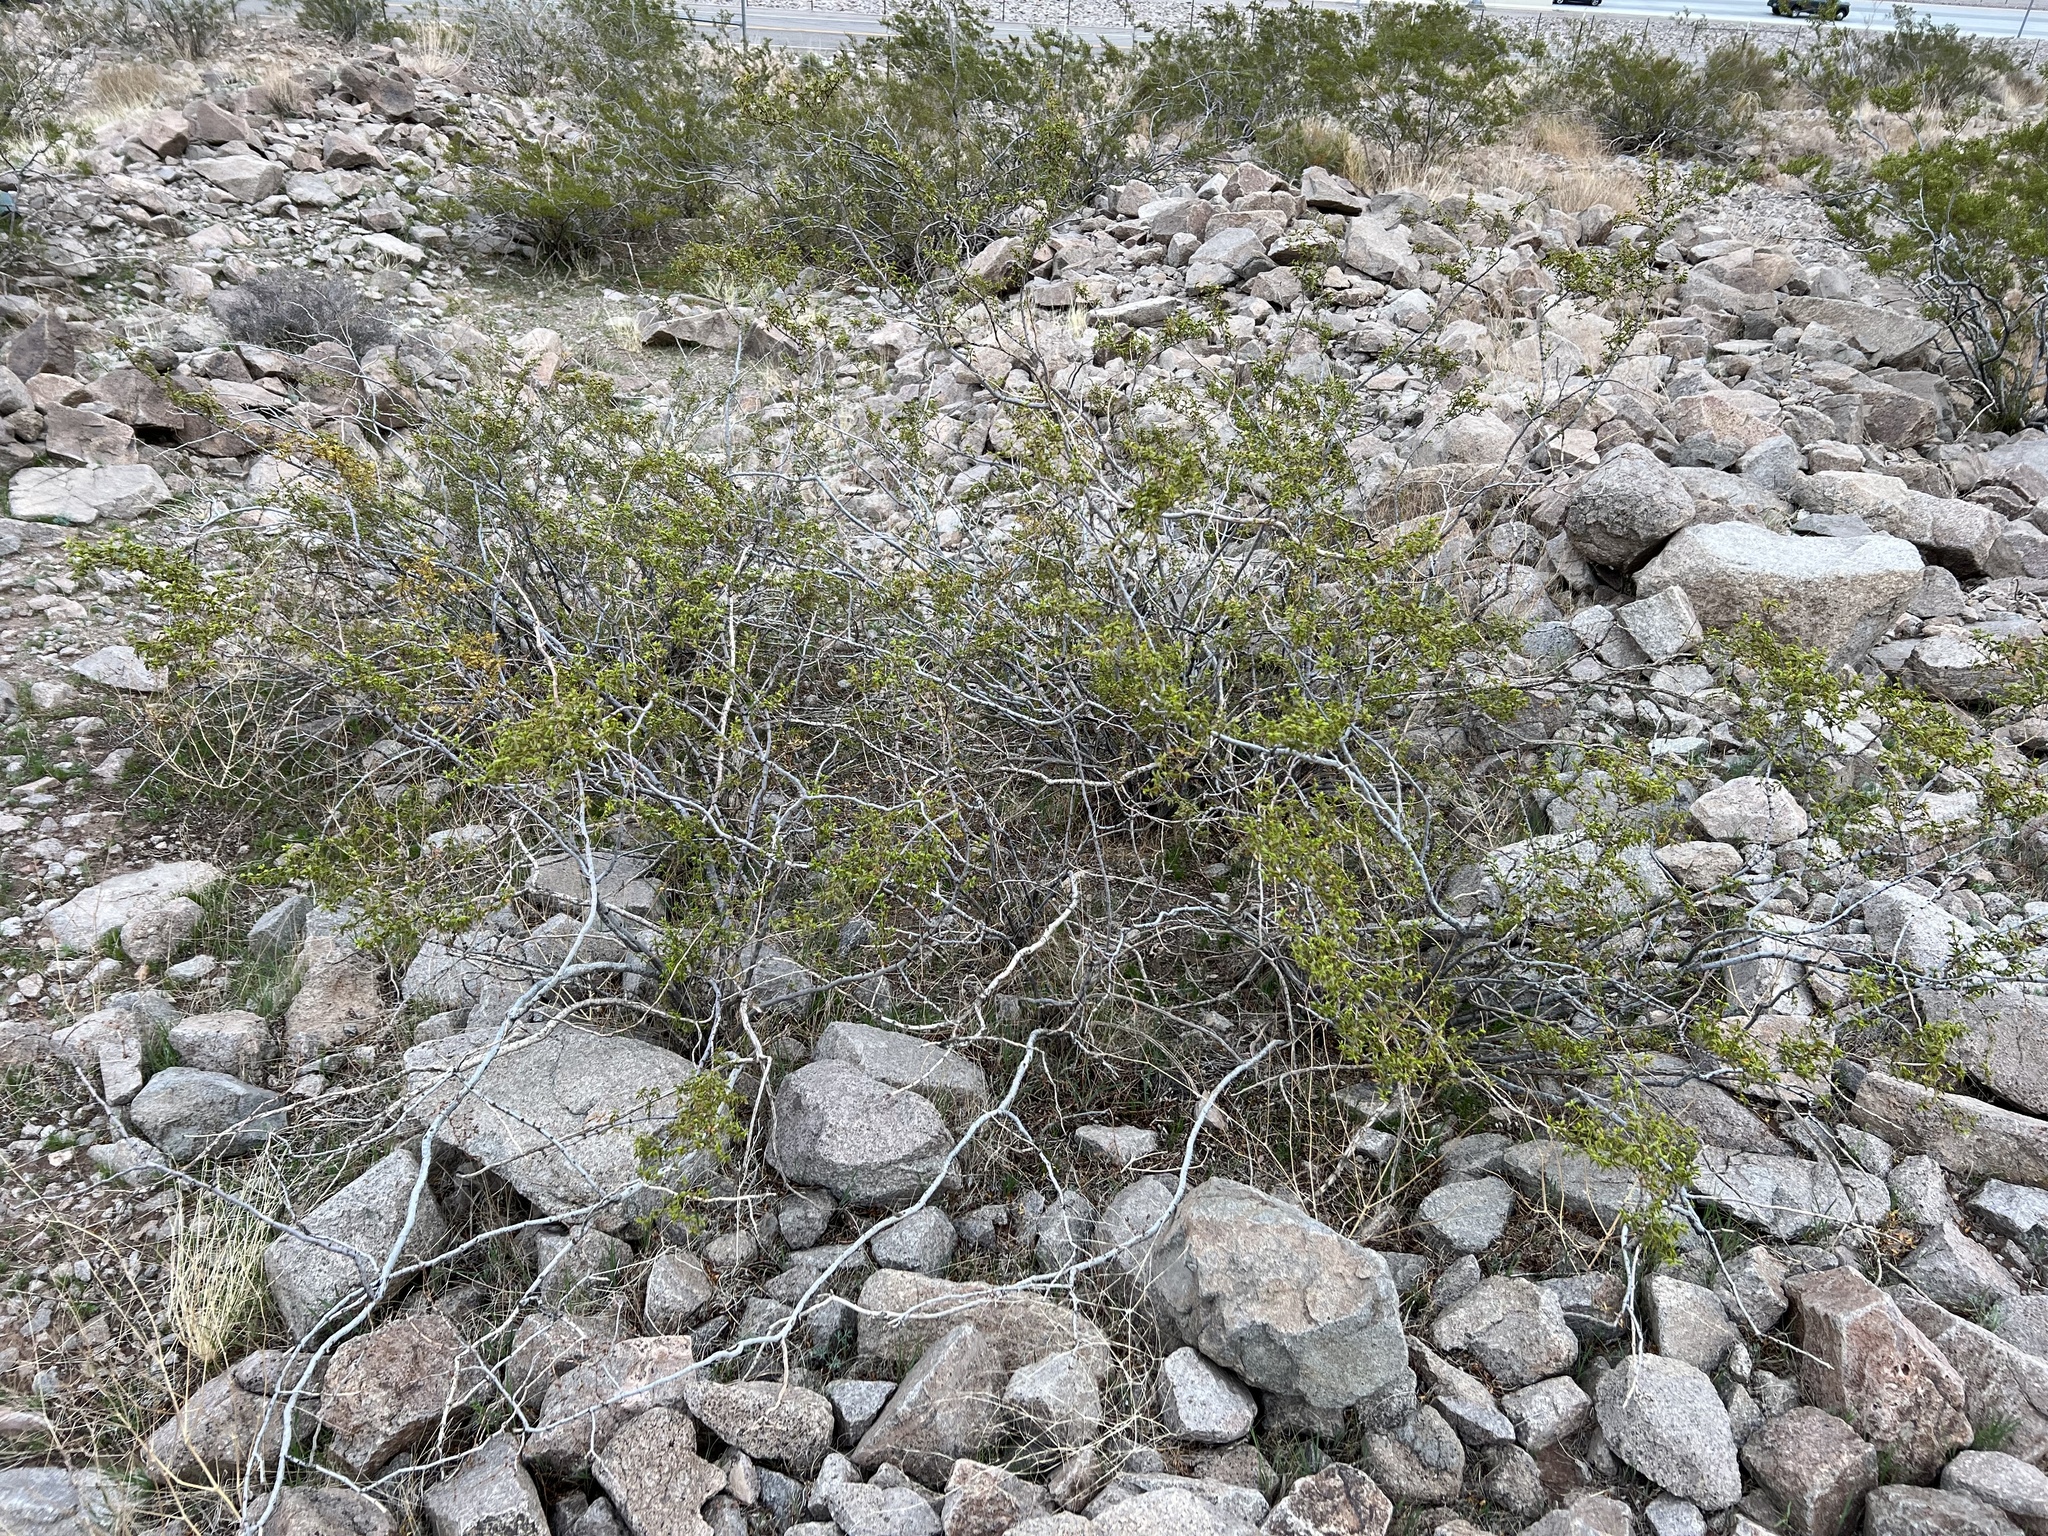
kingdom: Plantae
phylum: Tracheophyta
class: Magnoliopsida
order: Zygophyllales
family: Zygophyllaceae
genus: Larrea
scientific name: Larrea tridentata
